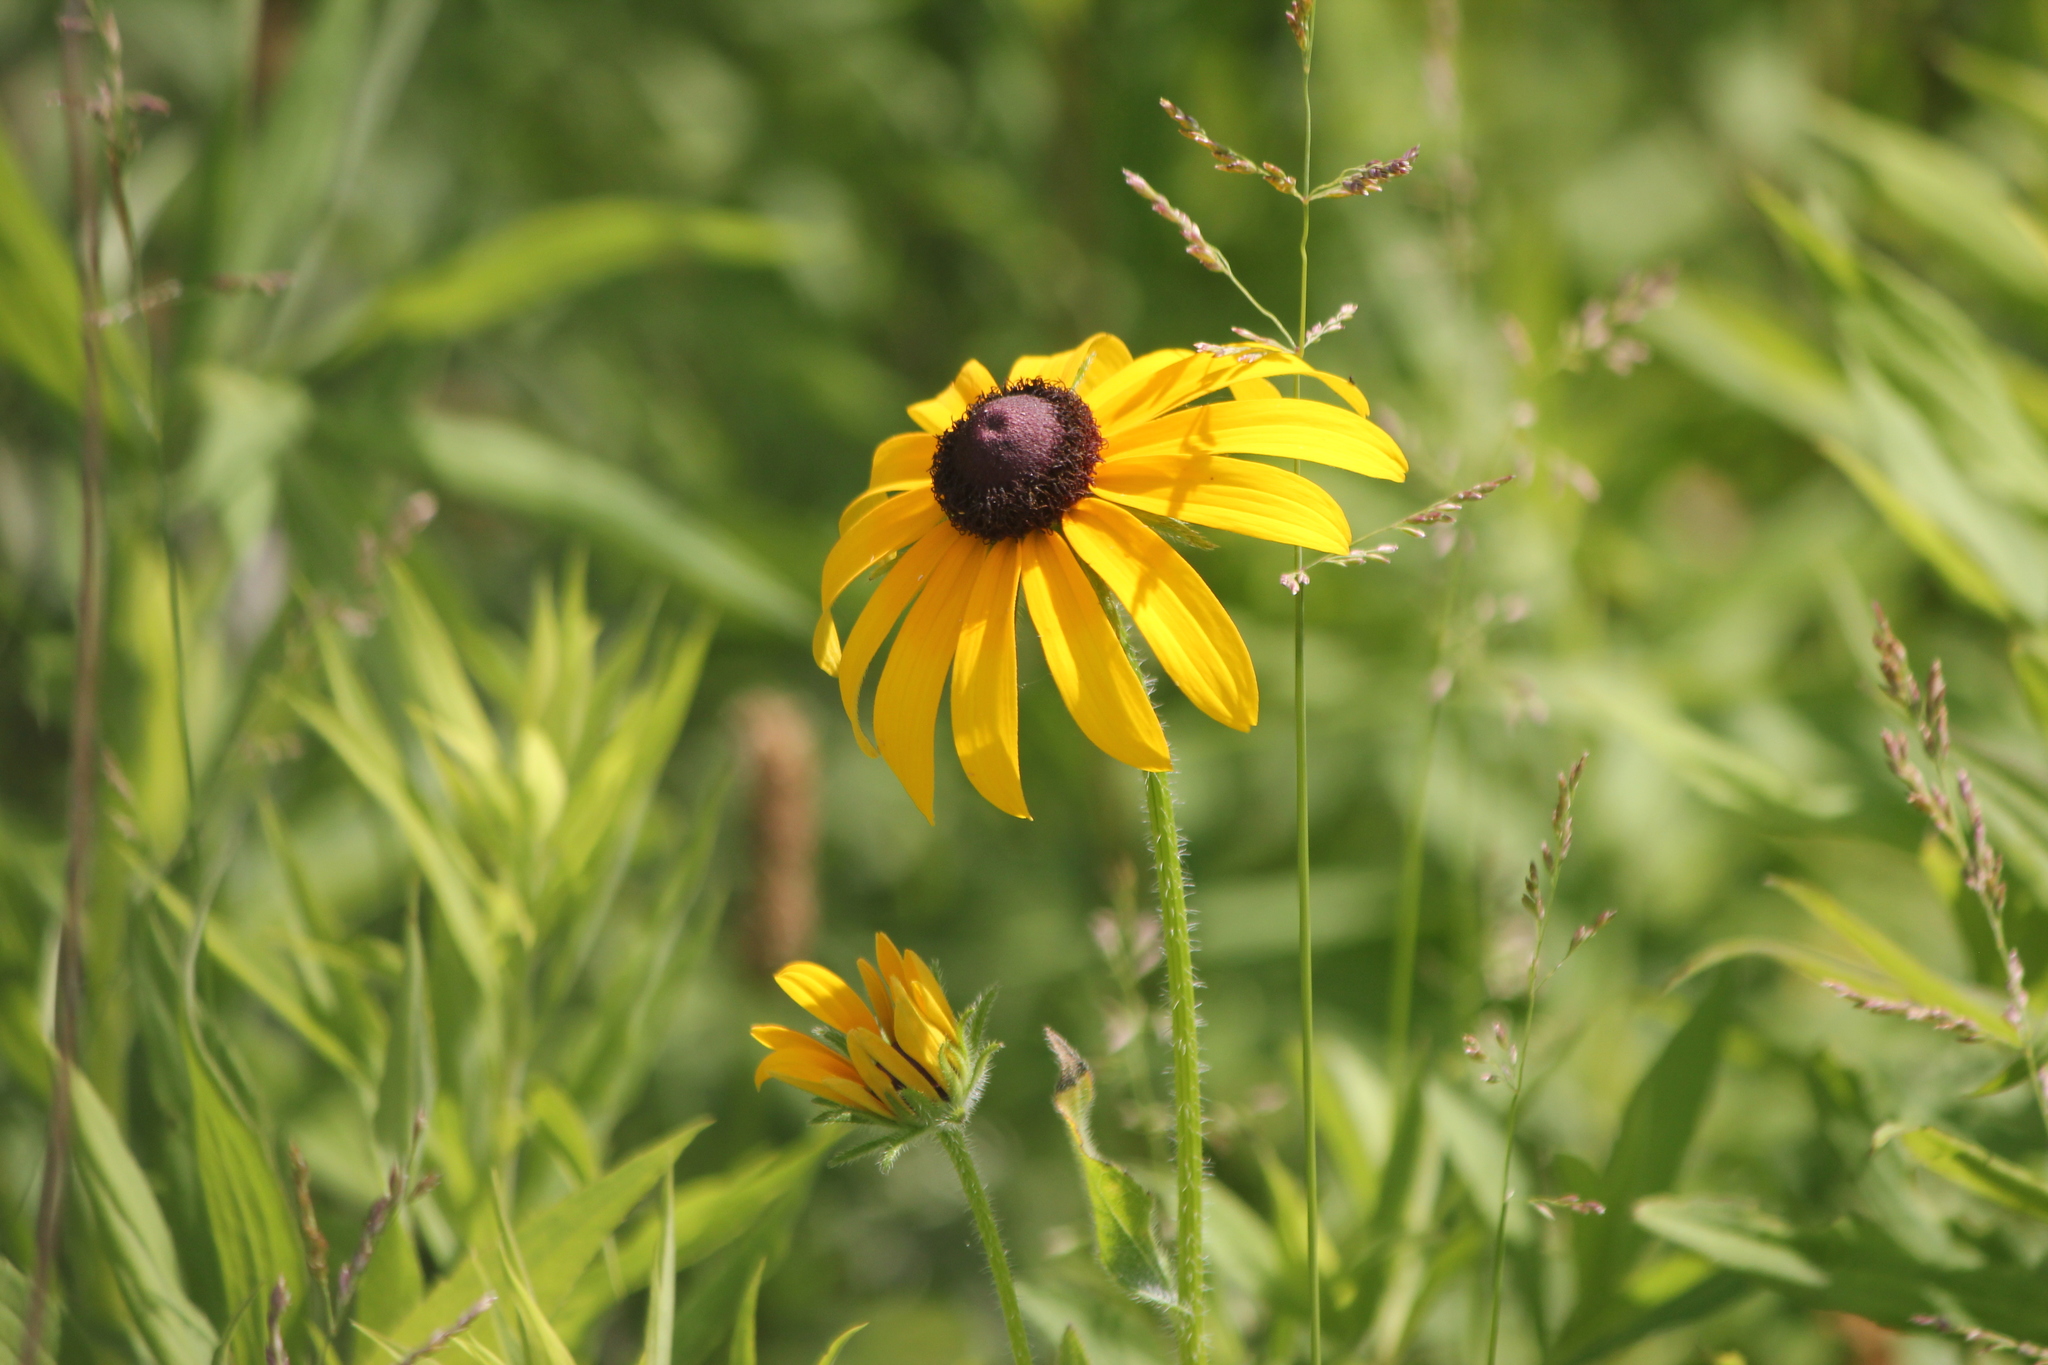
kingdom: Plantae
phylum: Tracheophyta
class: Magnoliopsida
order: Asterales
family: Asteraceae
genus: Rudbeckia
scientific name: Rudbeckia hirta
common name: Black-eyed-susan
